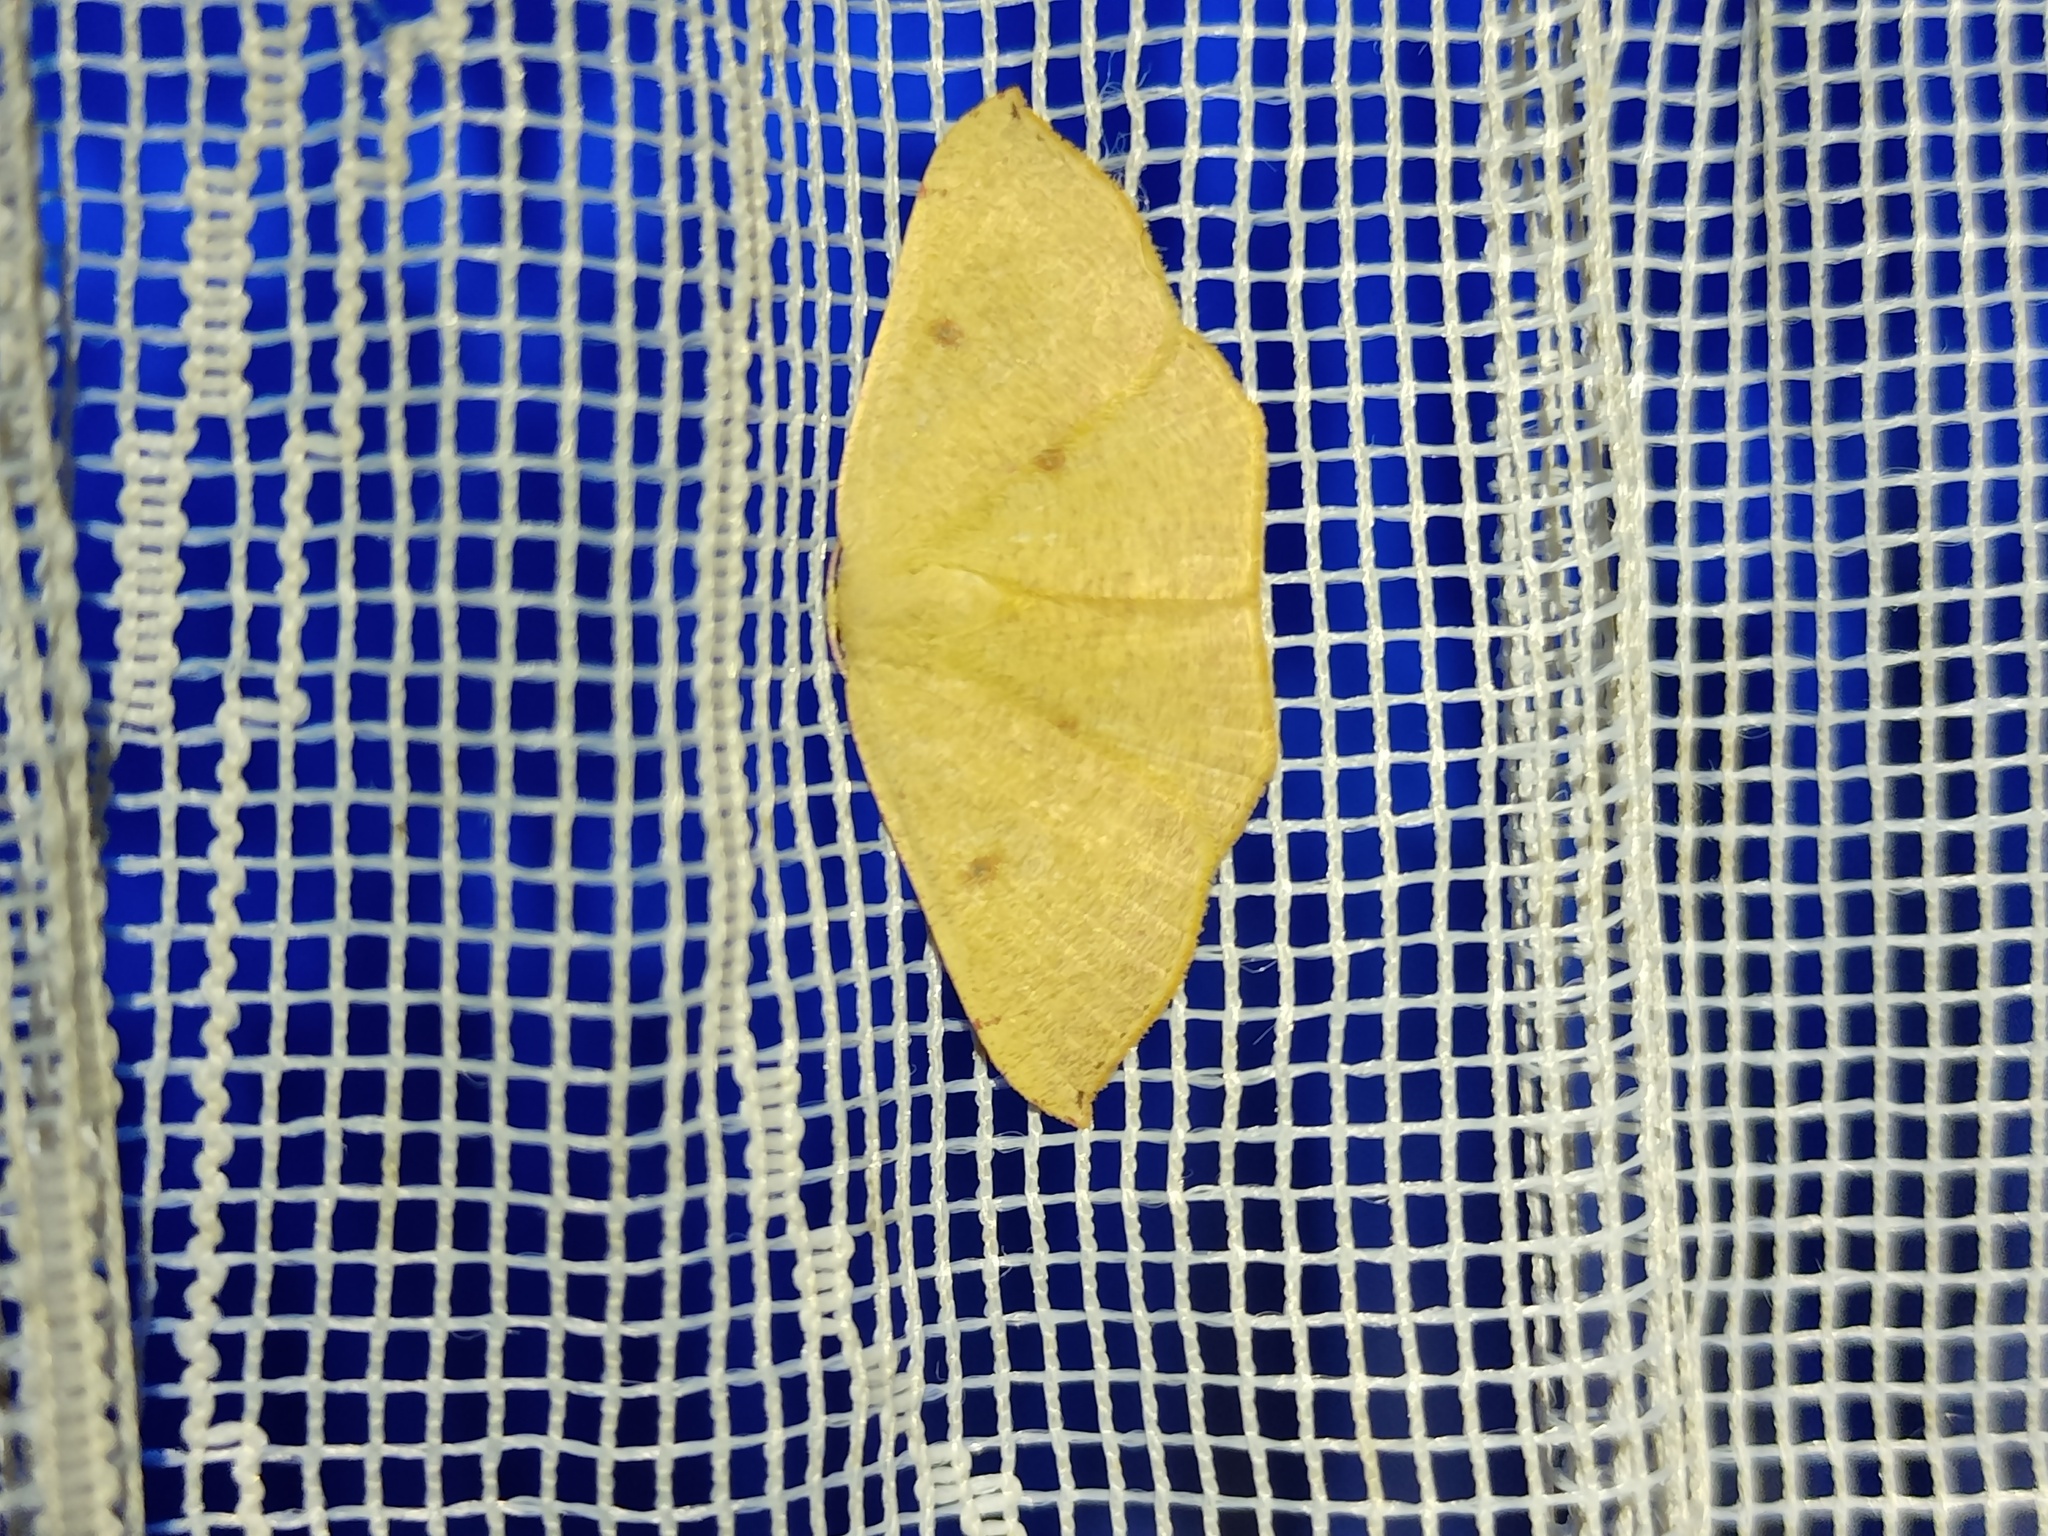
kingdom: Animalia
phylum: Arthropoda
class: Insecta
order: Lepidoptera
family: Geometridae
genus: Cyclophora
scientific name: Cyclophora puppillaria
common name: Blair's mocha
